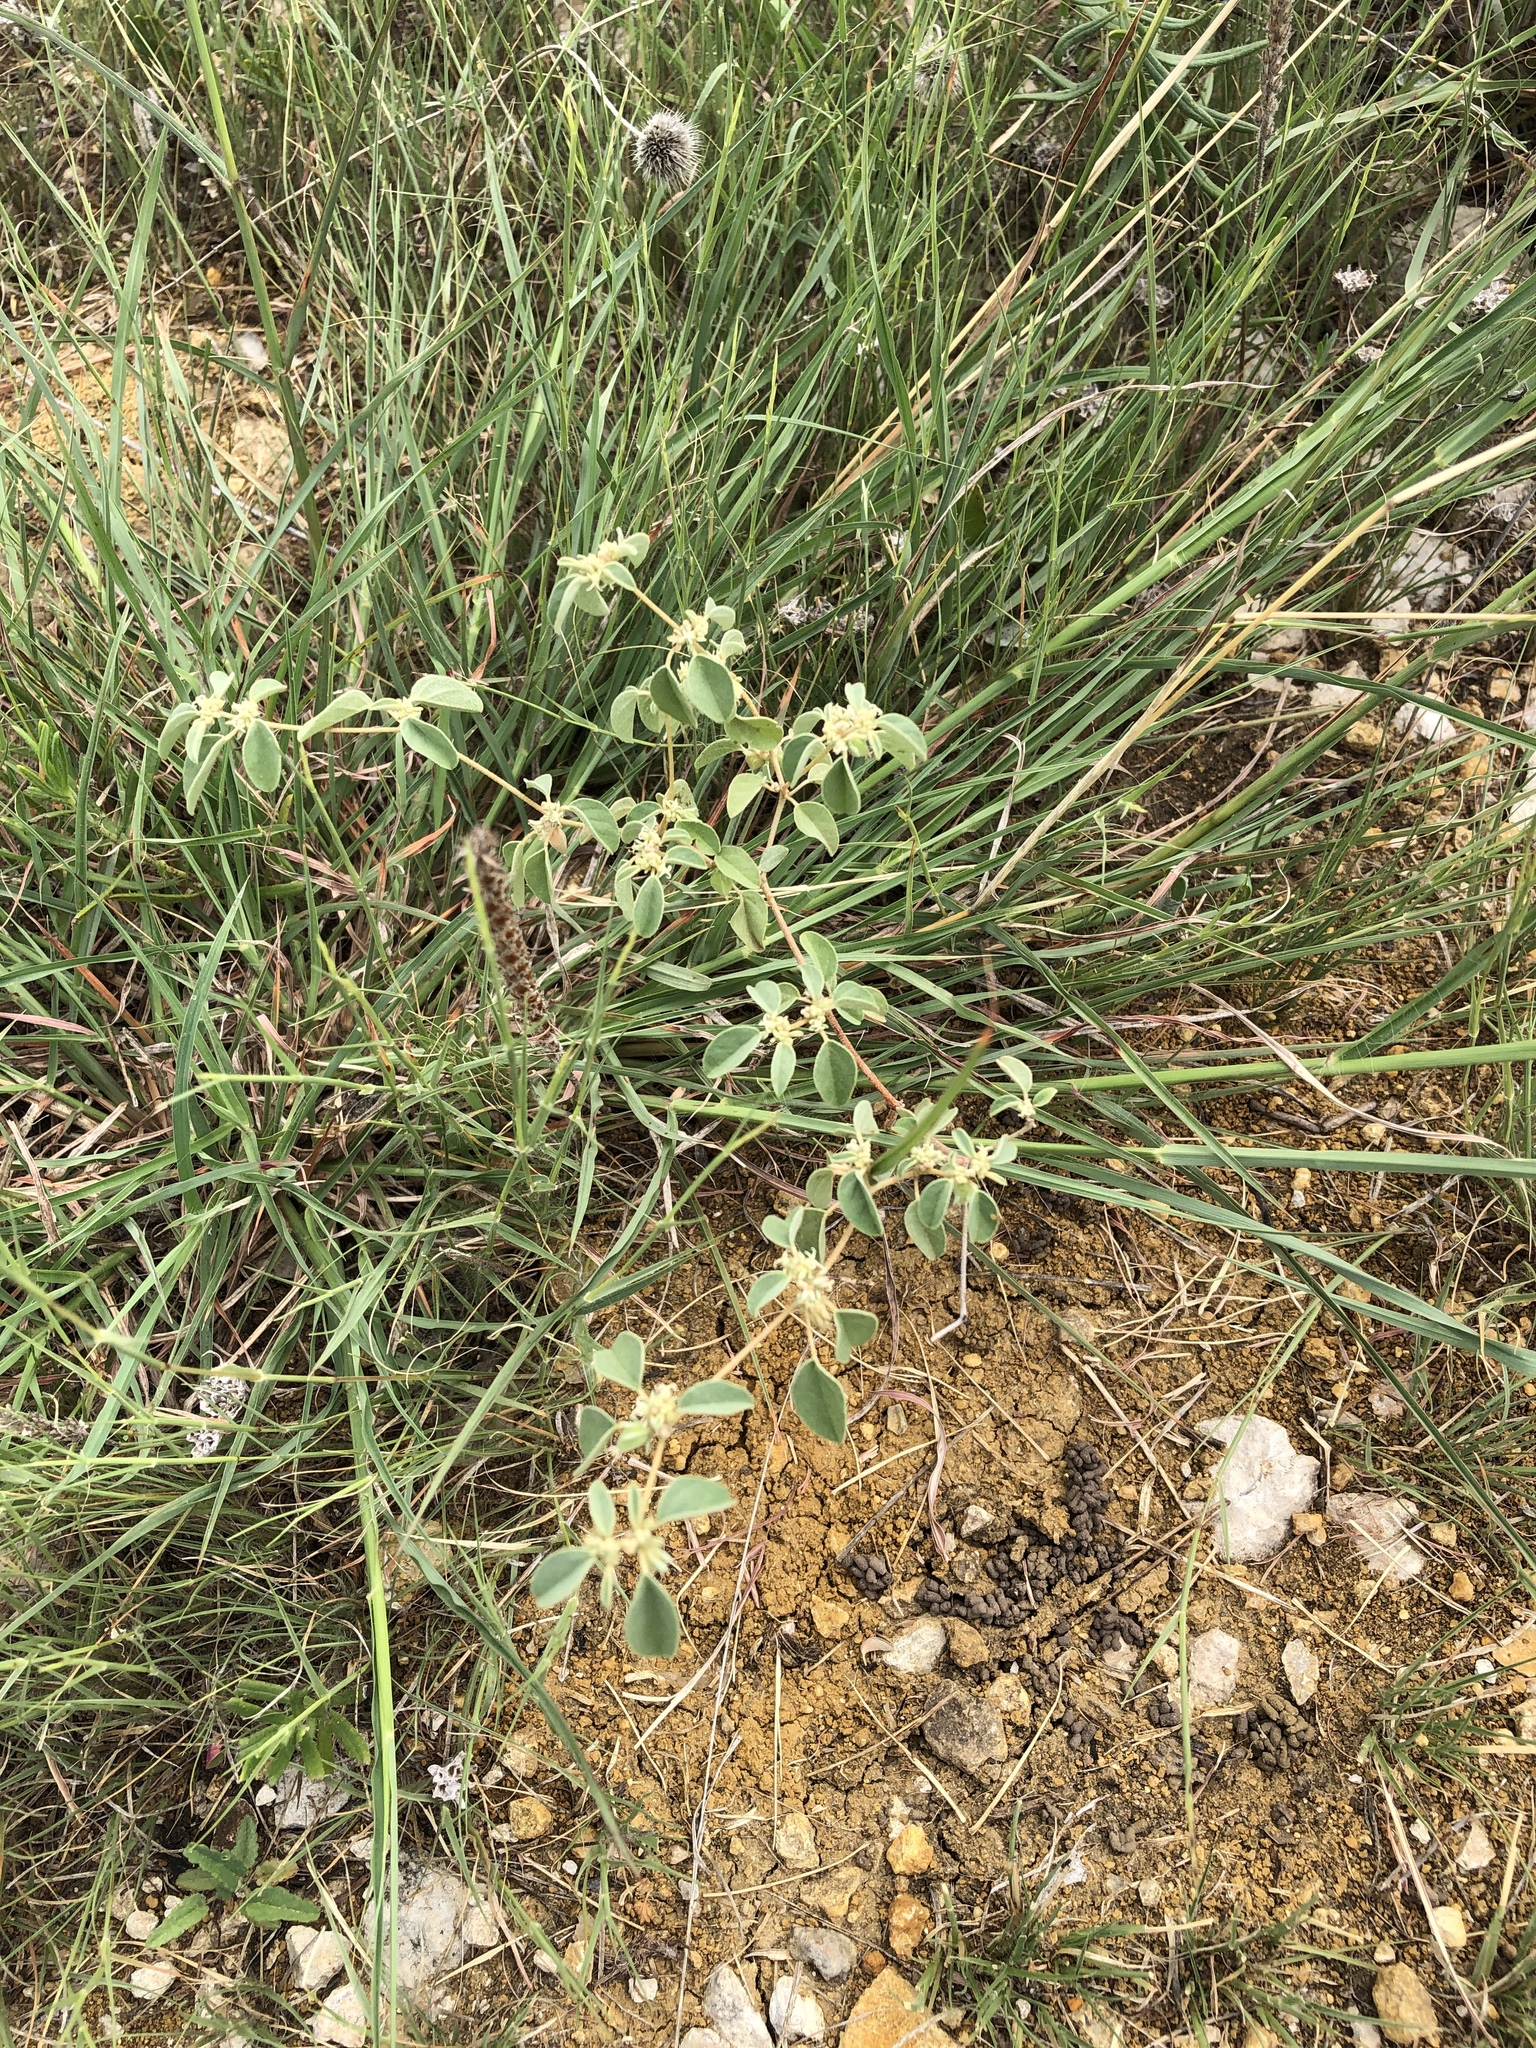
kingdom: Plantae
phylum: Tracheophyta
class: Magnoliopsida
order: Malpighiales
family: Euphorbiaceae
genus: Croton
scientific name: Croton monanthogynus
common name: One-seed croton
